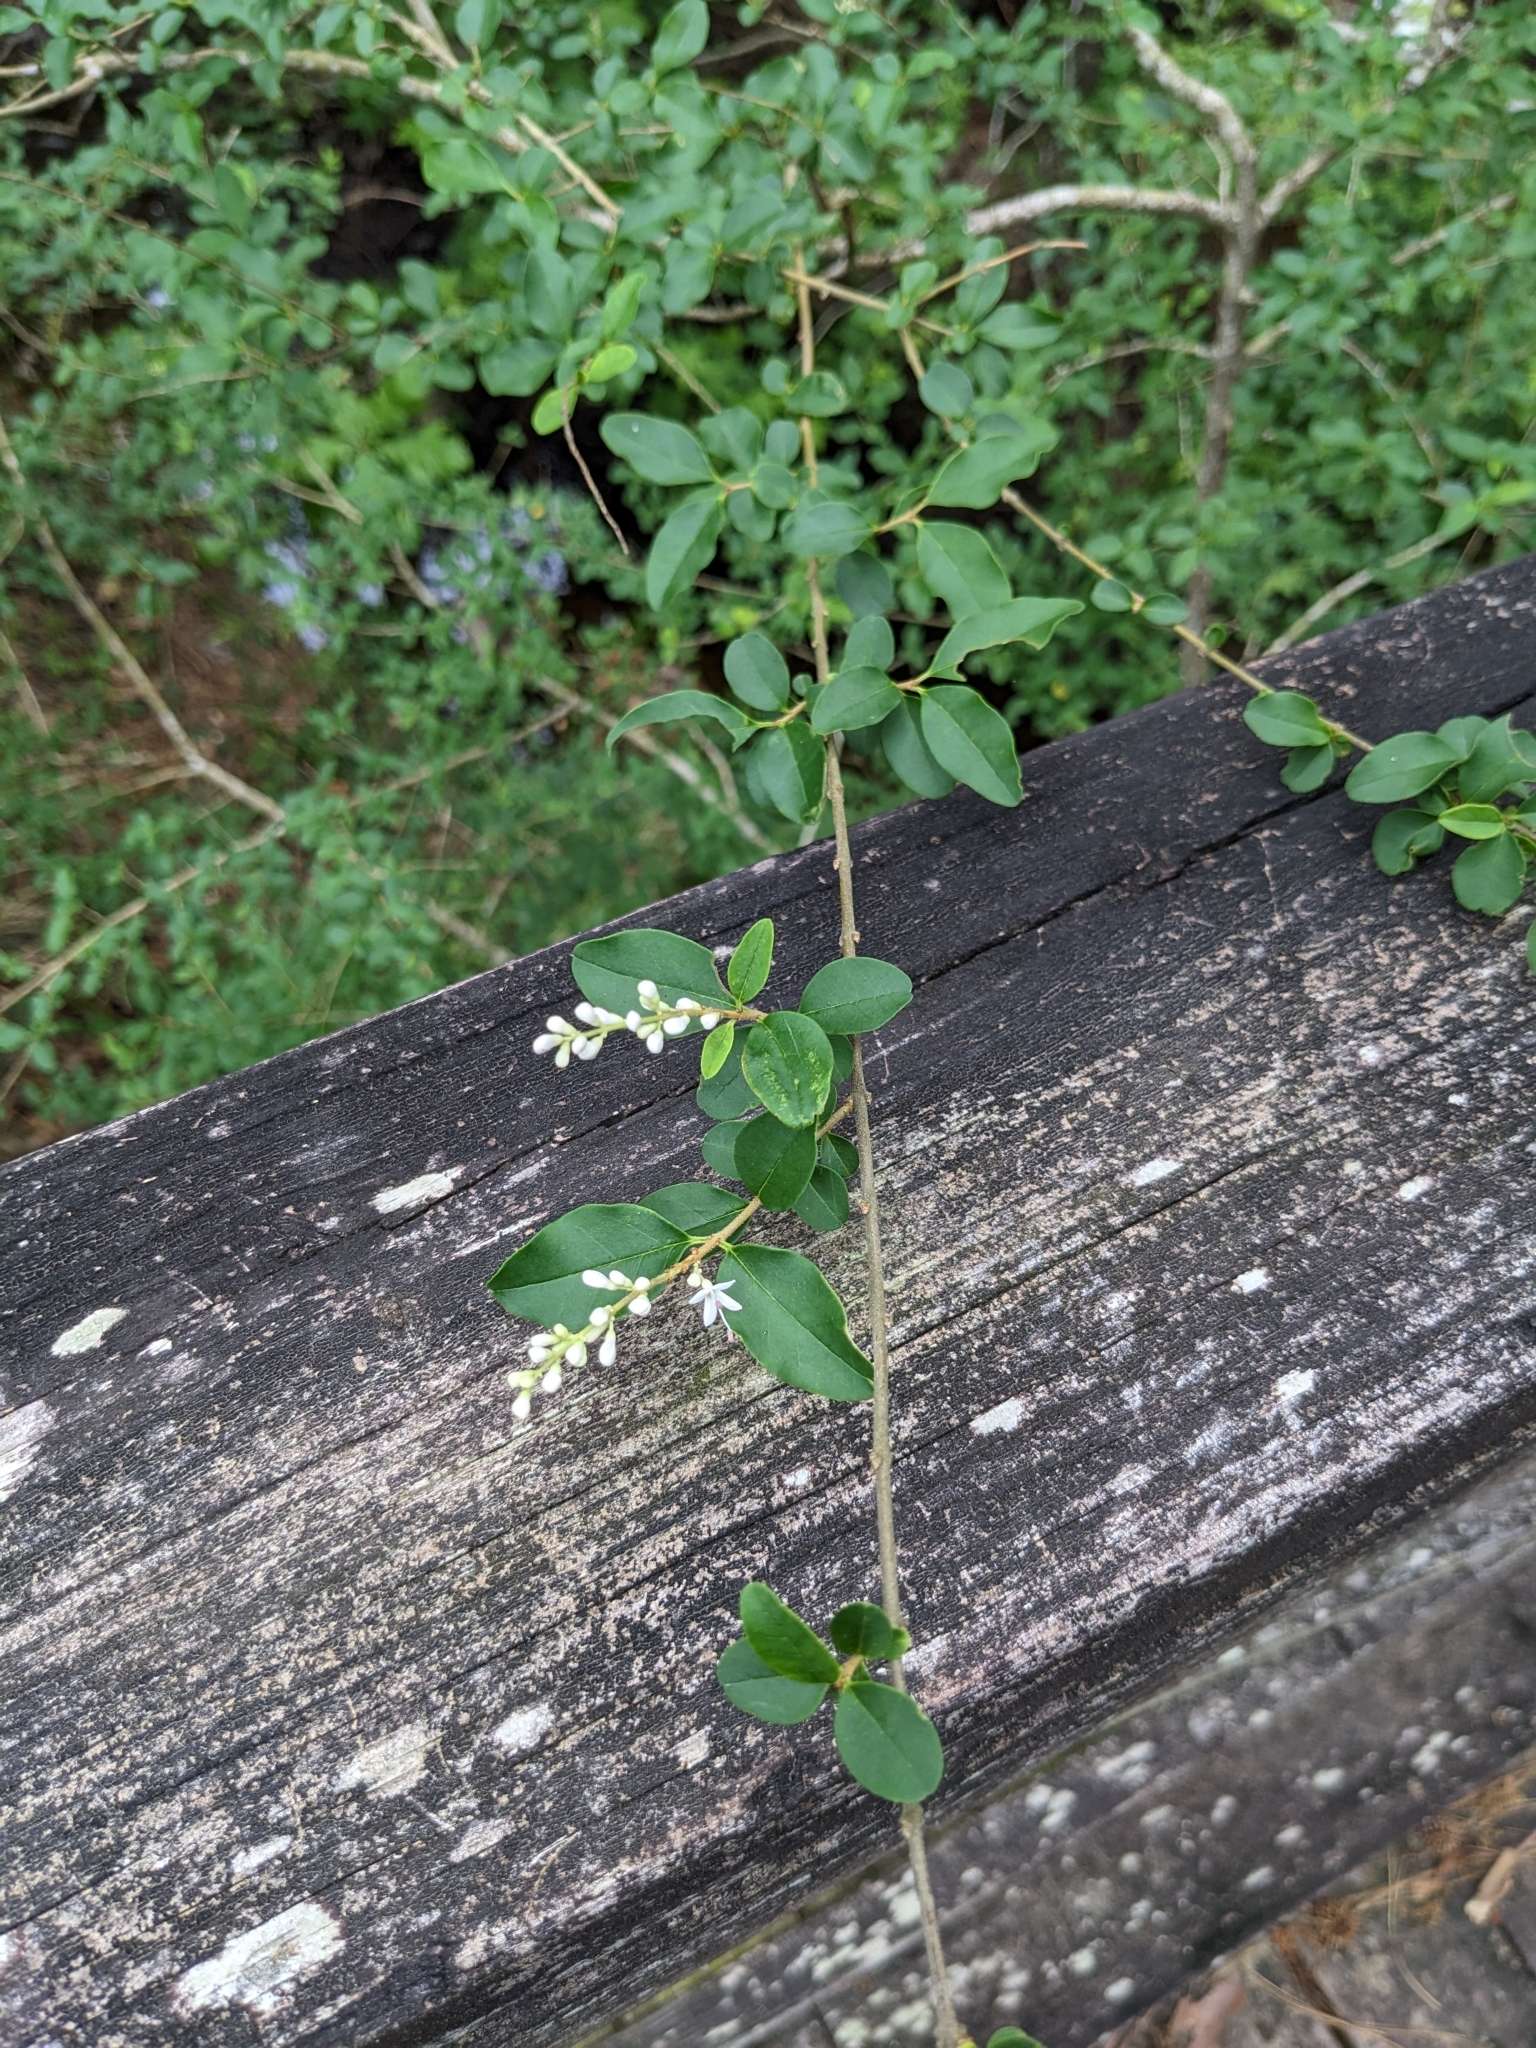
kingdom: Plantae
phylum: Tracheophyta
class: Magnoliopsida
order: Lamiales
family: Oleaceae
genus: Ligustrum
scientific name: Ligustrum sinense
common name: Chinese privet
